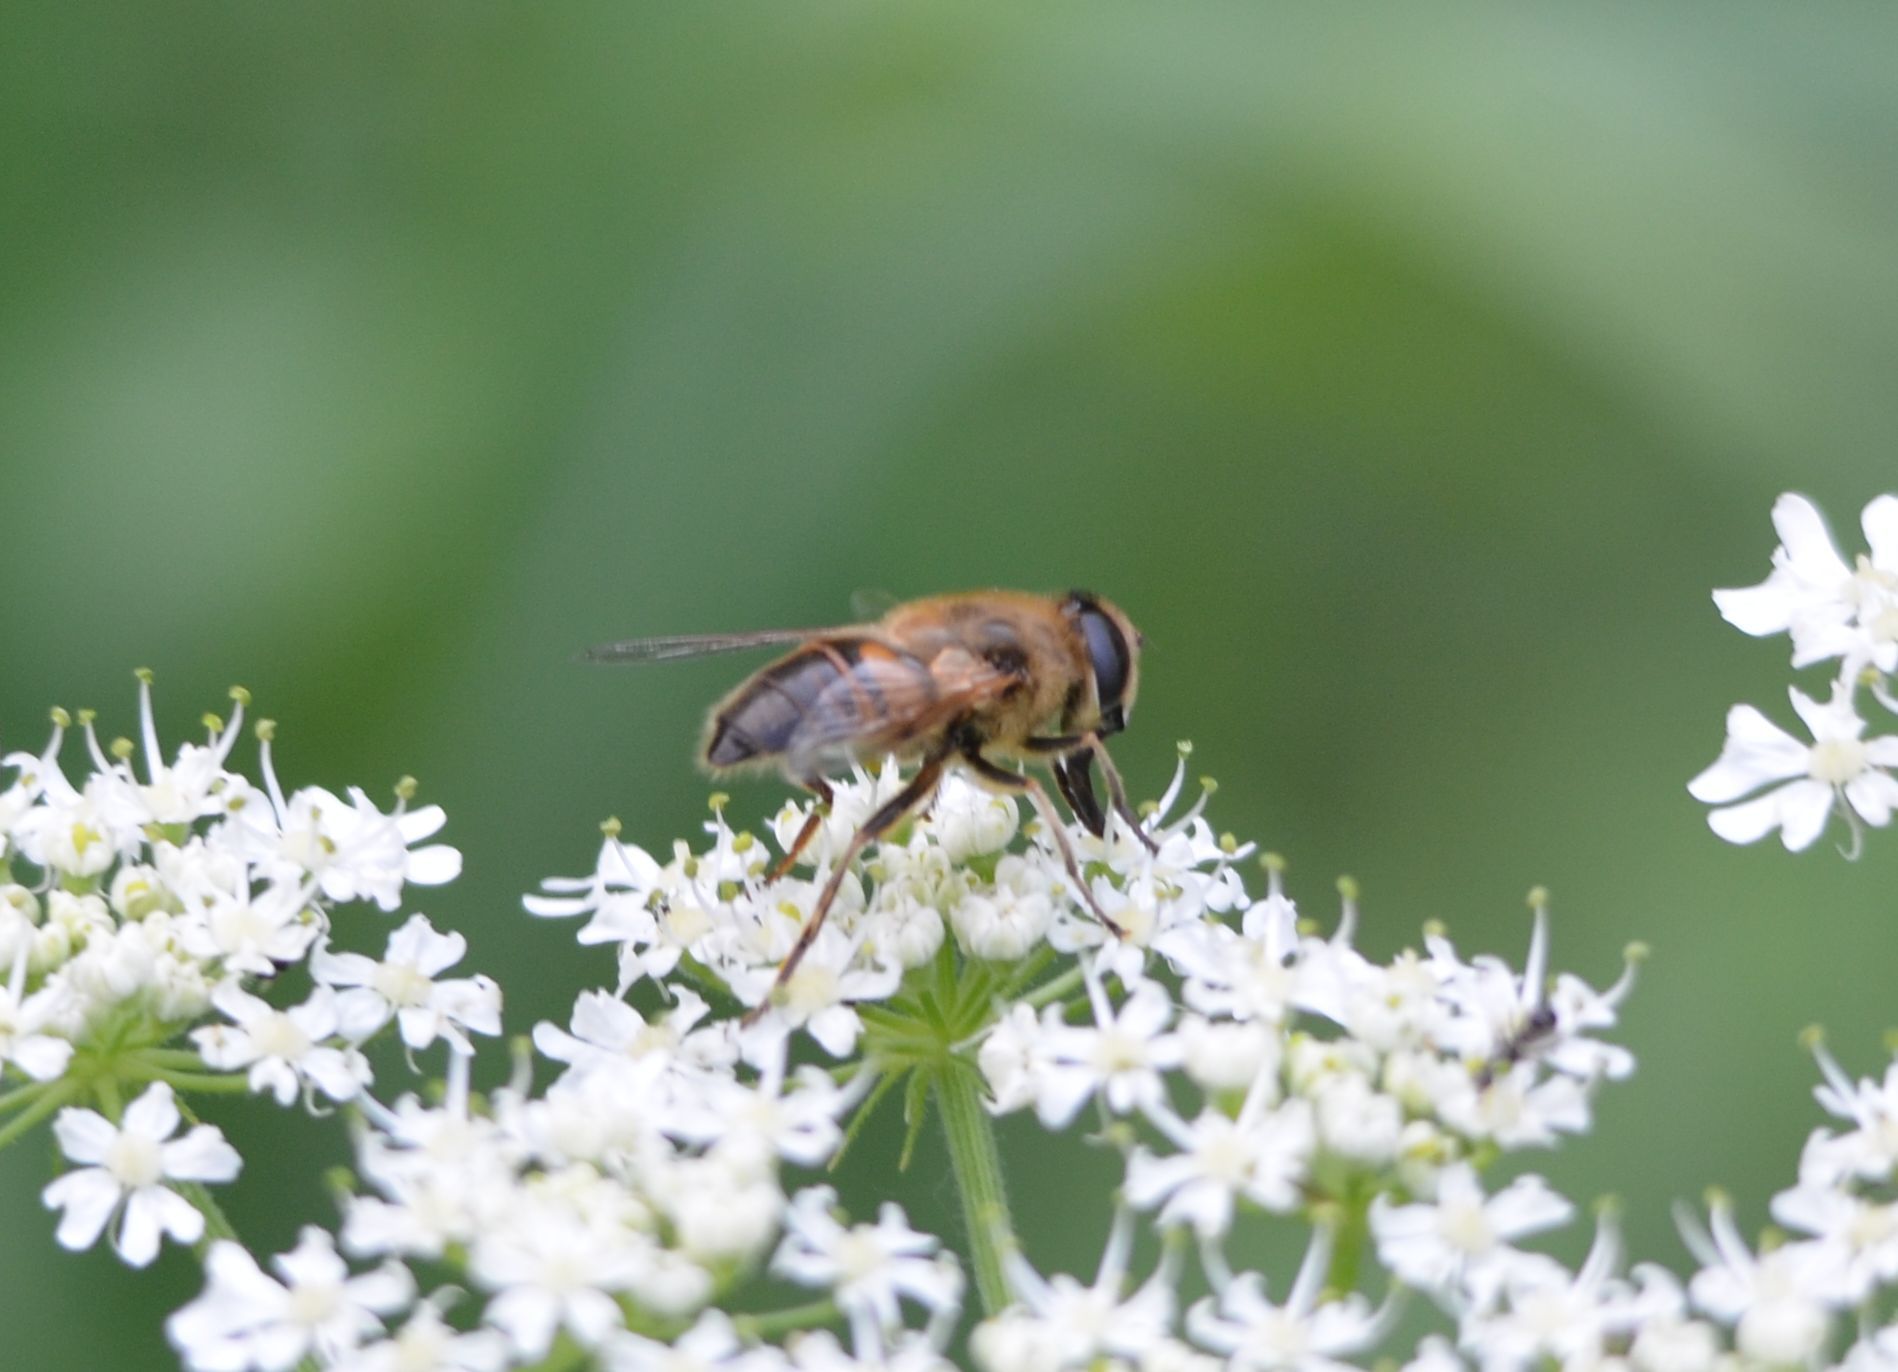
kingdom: Animalia
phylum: Arthropoda
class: Insecta
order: Diptera
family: Syrphidae
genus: Eristalis
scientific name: Eristalis tenax
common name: Drone fly
